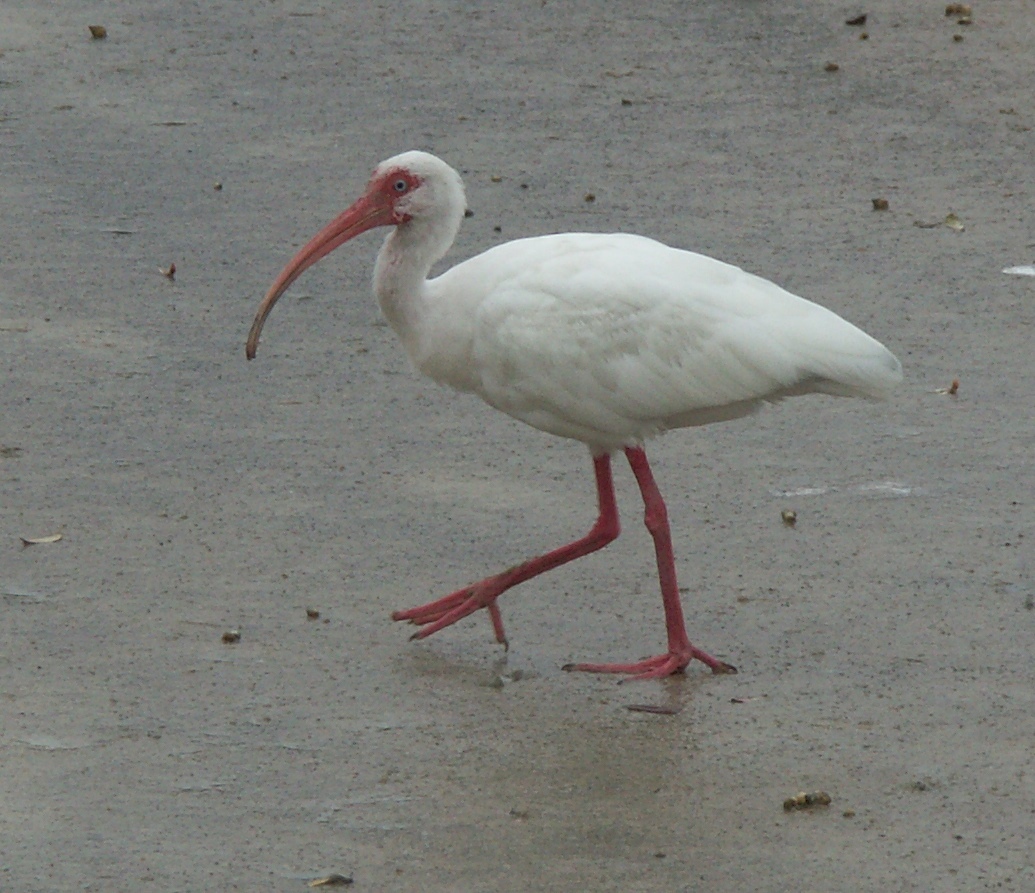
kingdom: Animalia
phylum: Chordata
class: Aves
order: Pelecaniformes
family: Threskiornithidae
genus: Eudocimus
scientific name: Eudocimus albus
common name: White ibis
